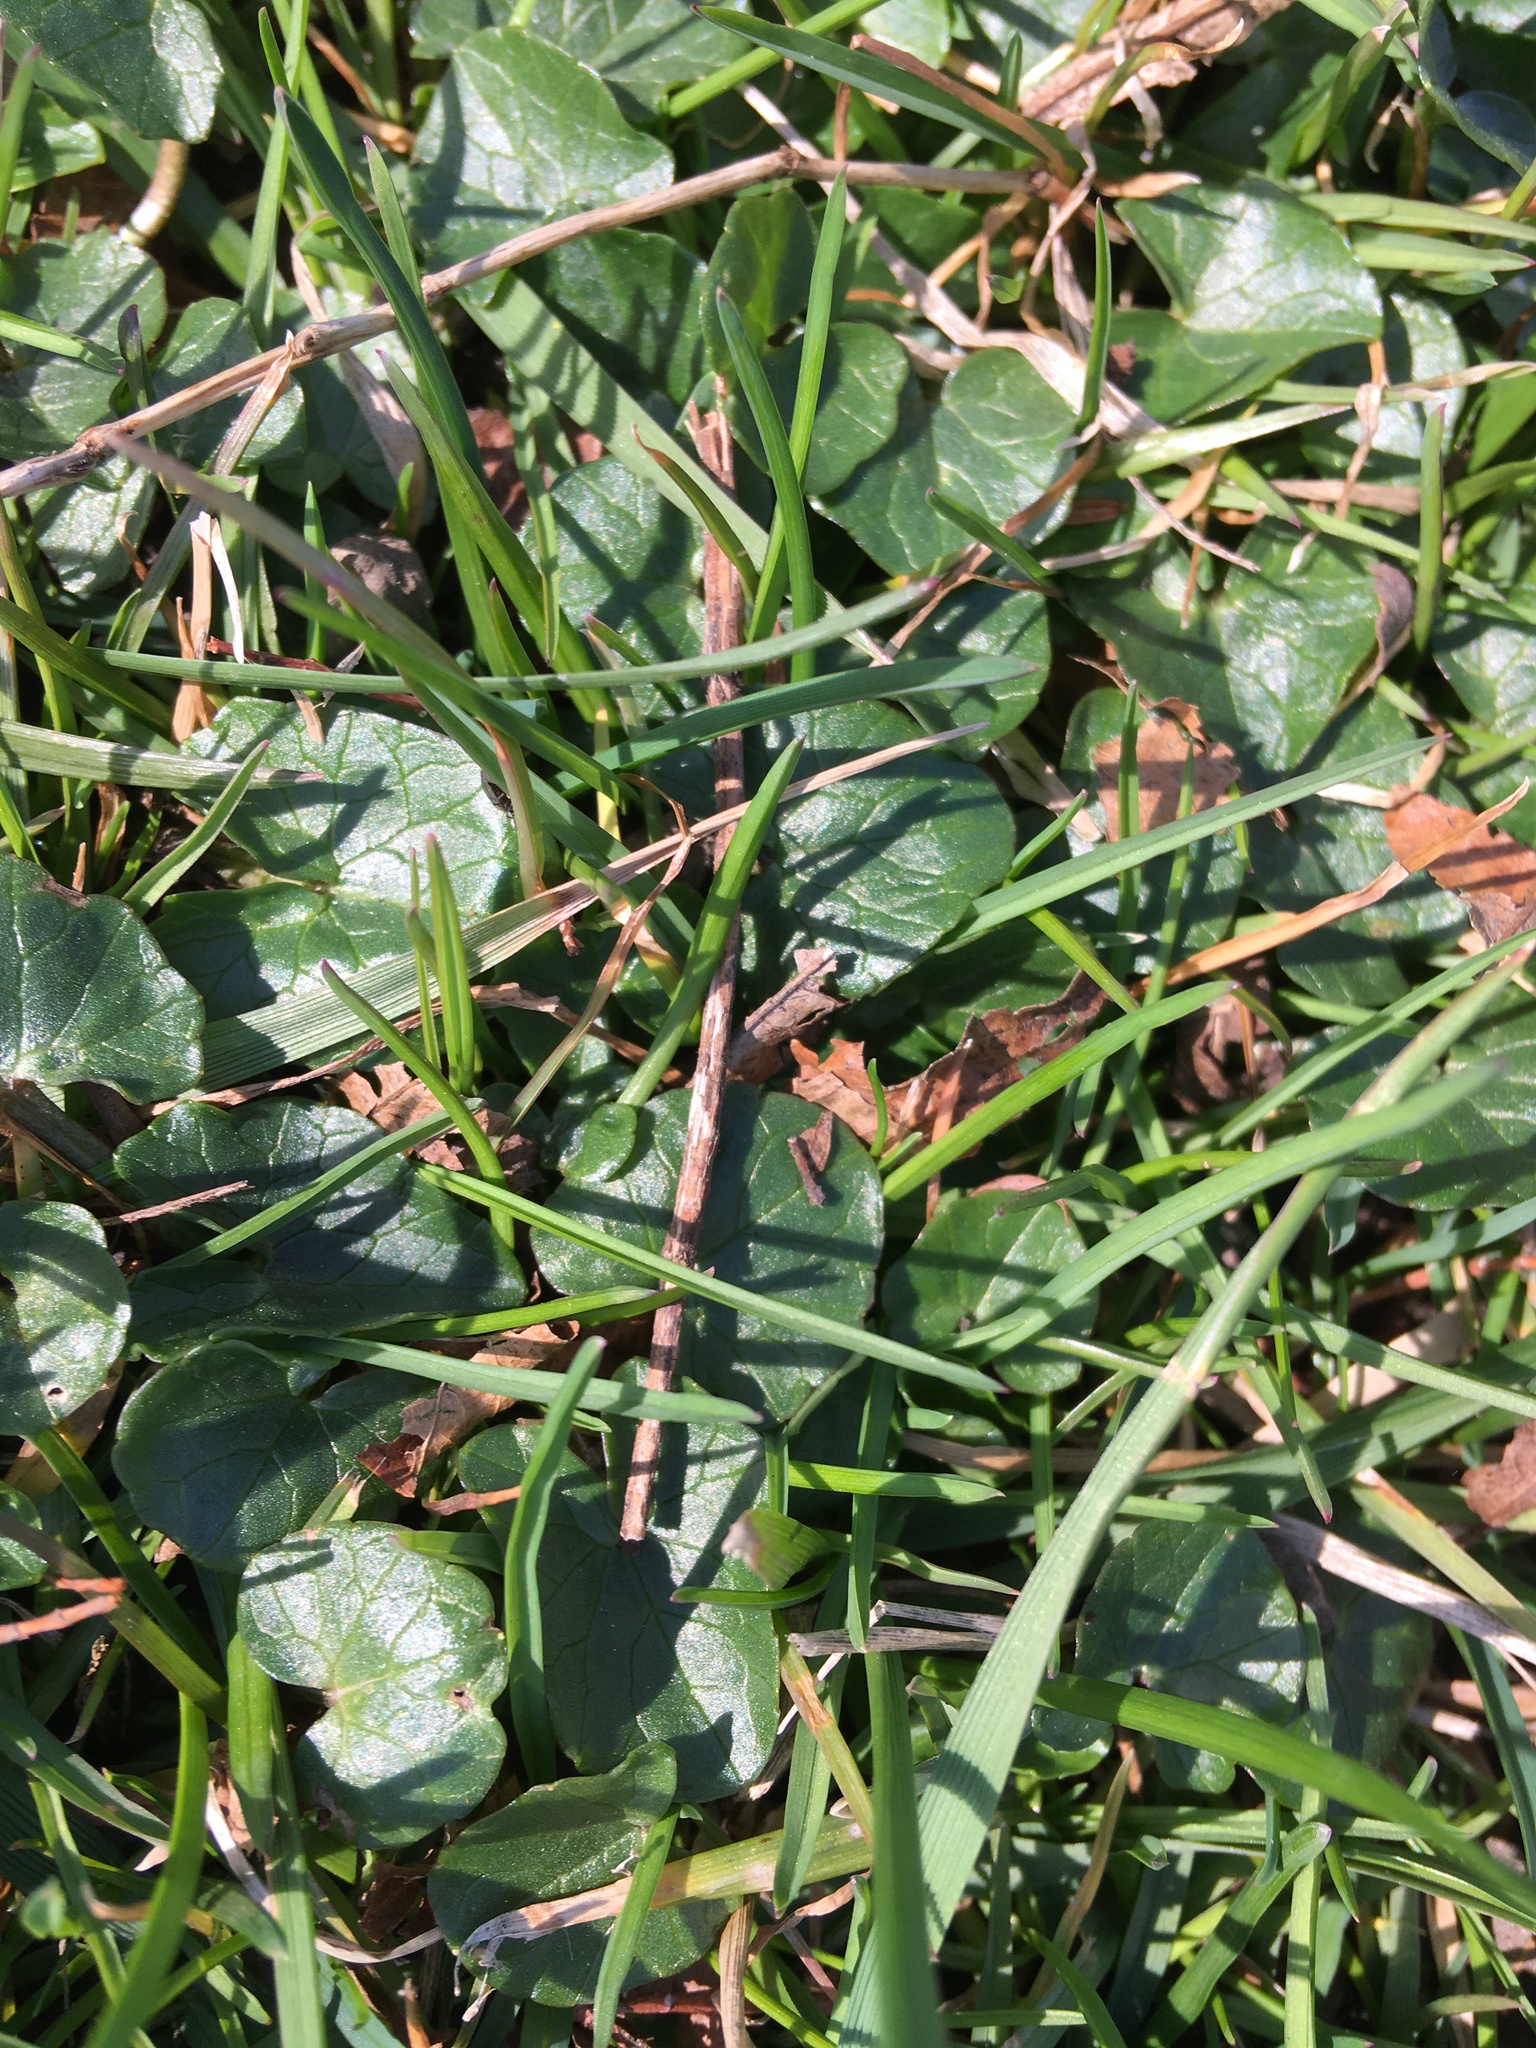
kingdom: Plantae
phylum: Tracheophyta
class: Magnoliopsida
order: Ranunculales
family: Ranunculaceae
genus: Ficaria
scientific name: Ficaria verna
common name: Lesser celandine
